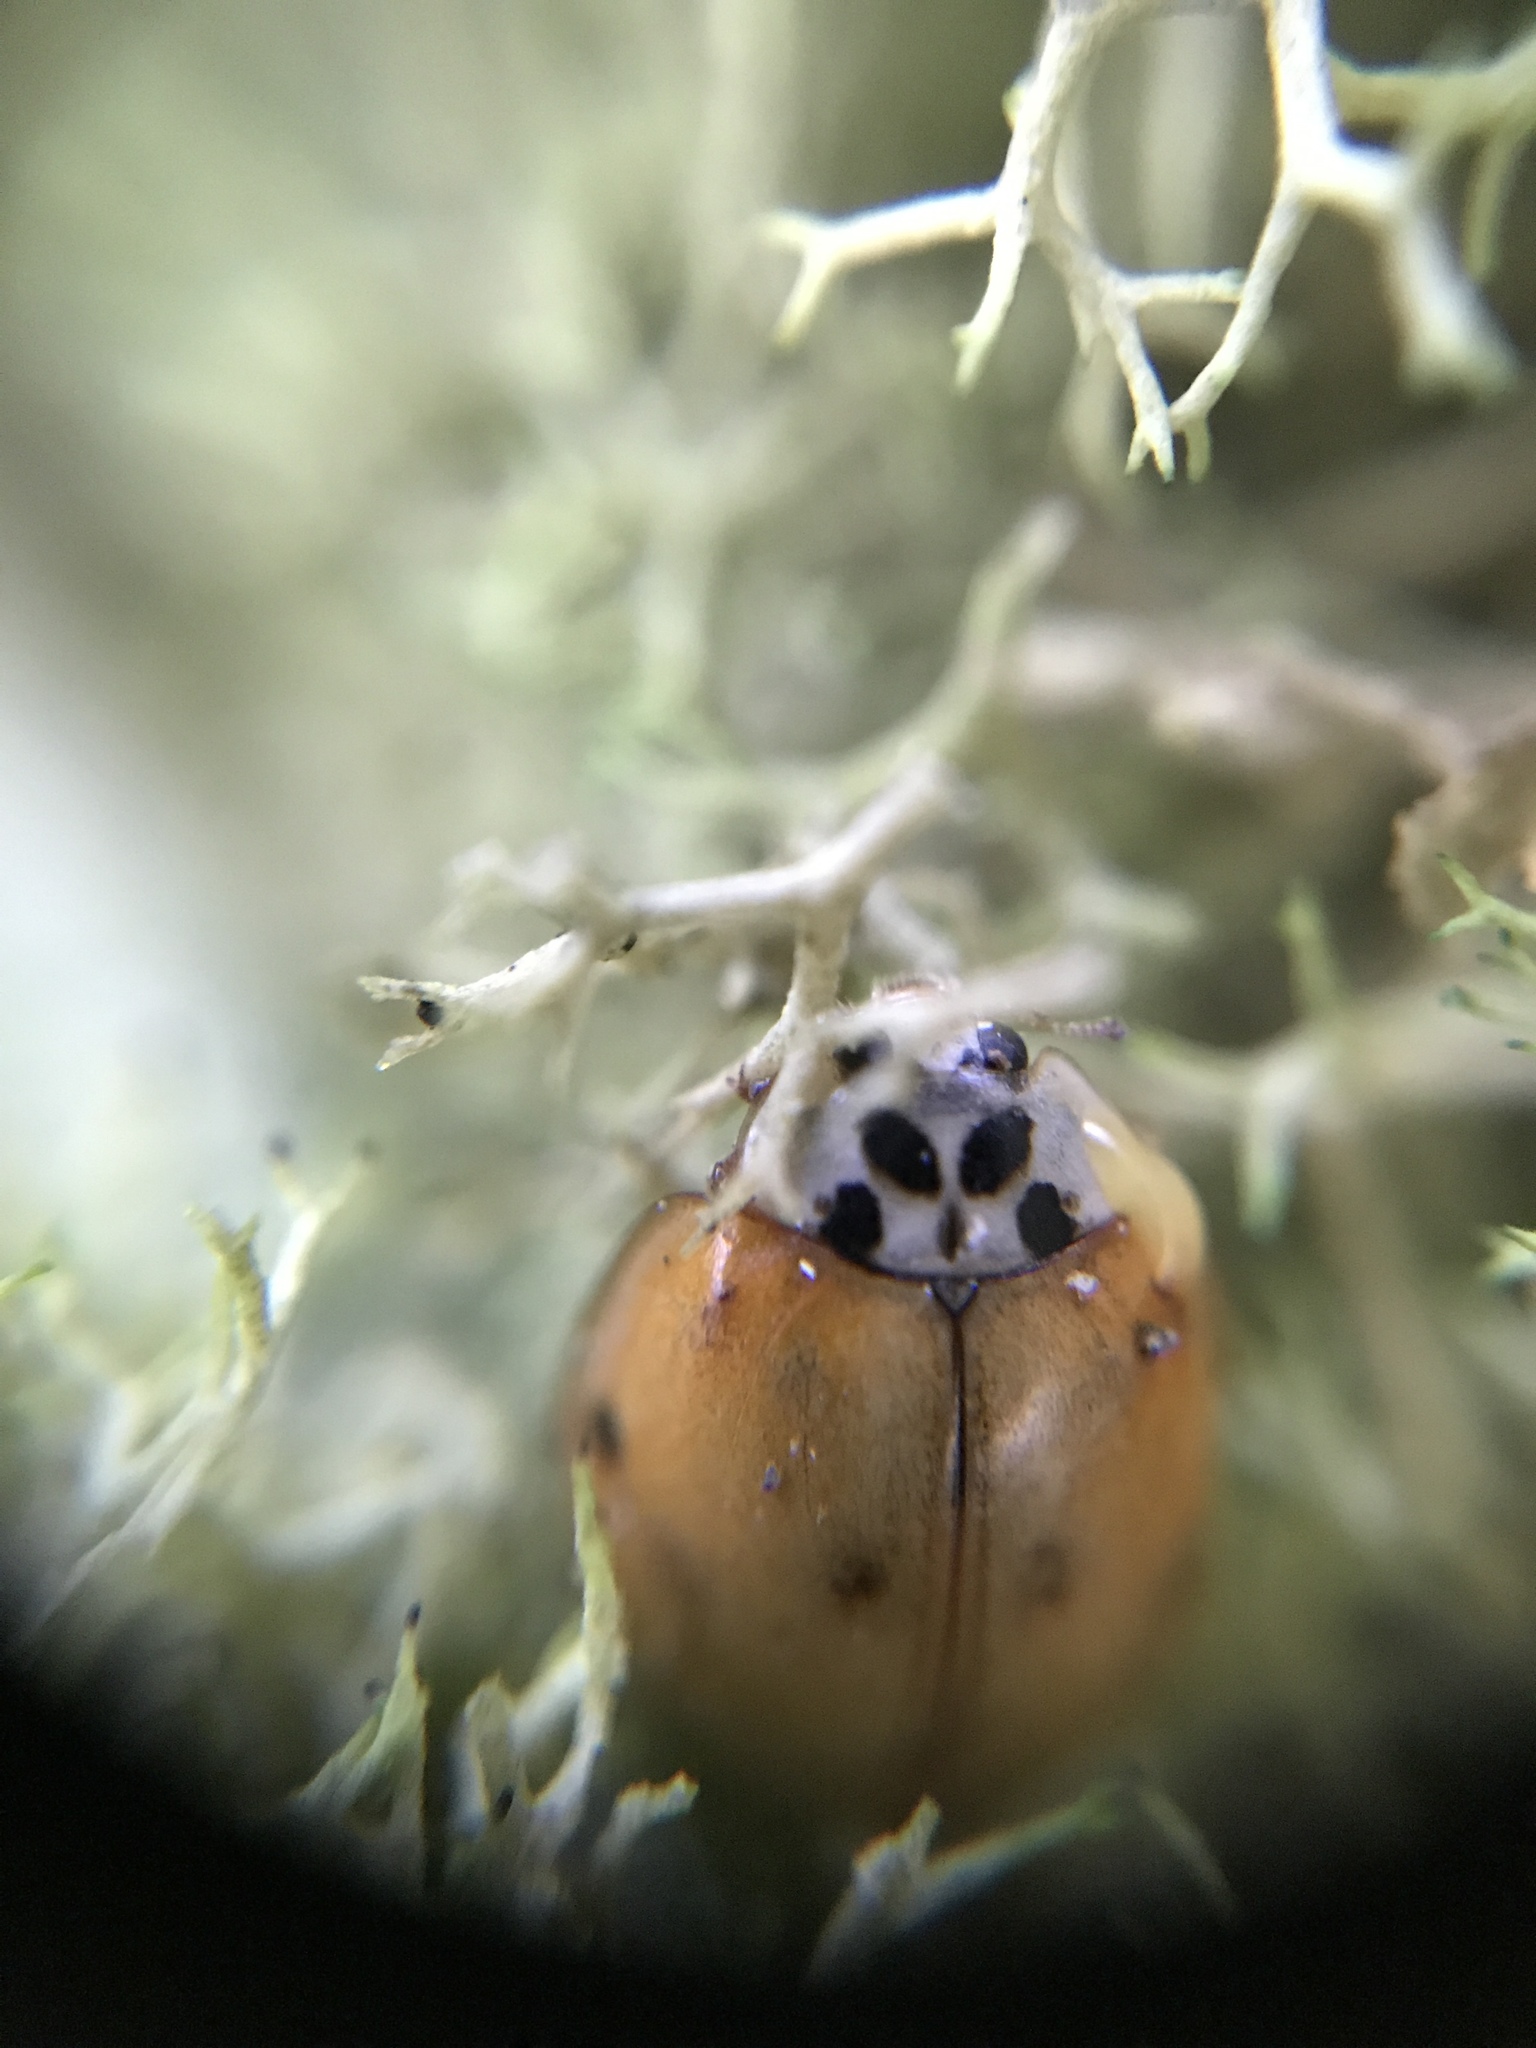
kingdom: Animalia
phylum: Arthropoda
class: Insecta
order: Coleoptera
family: Coccinellidae
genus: Harmonia
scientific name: Harmonia axyridis
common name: Harlequin ladybird
